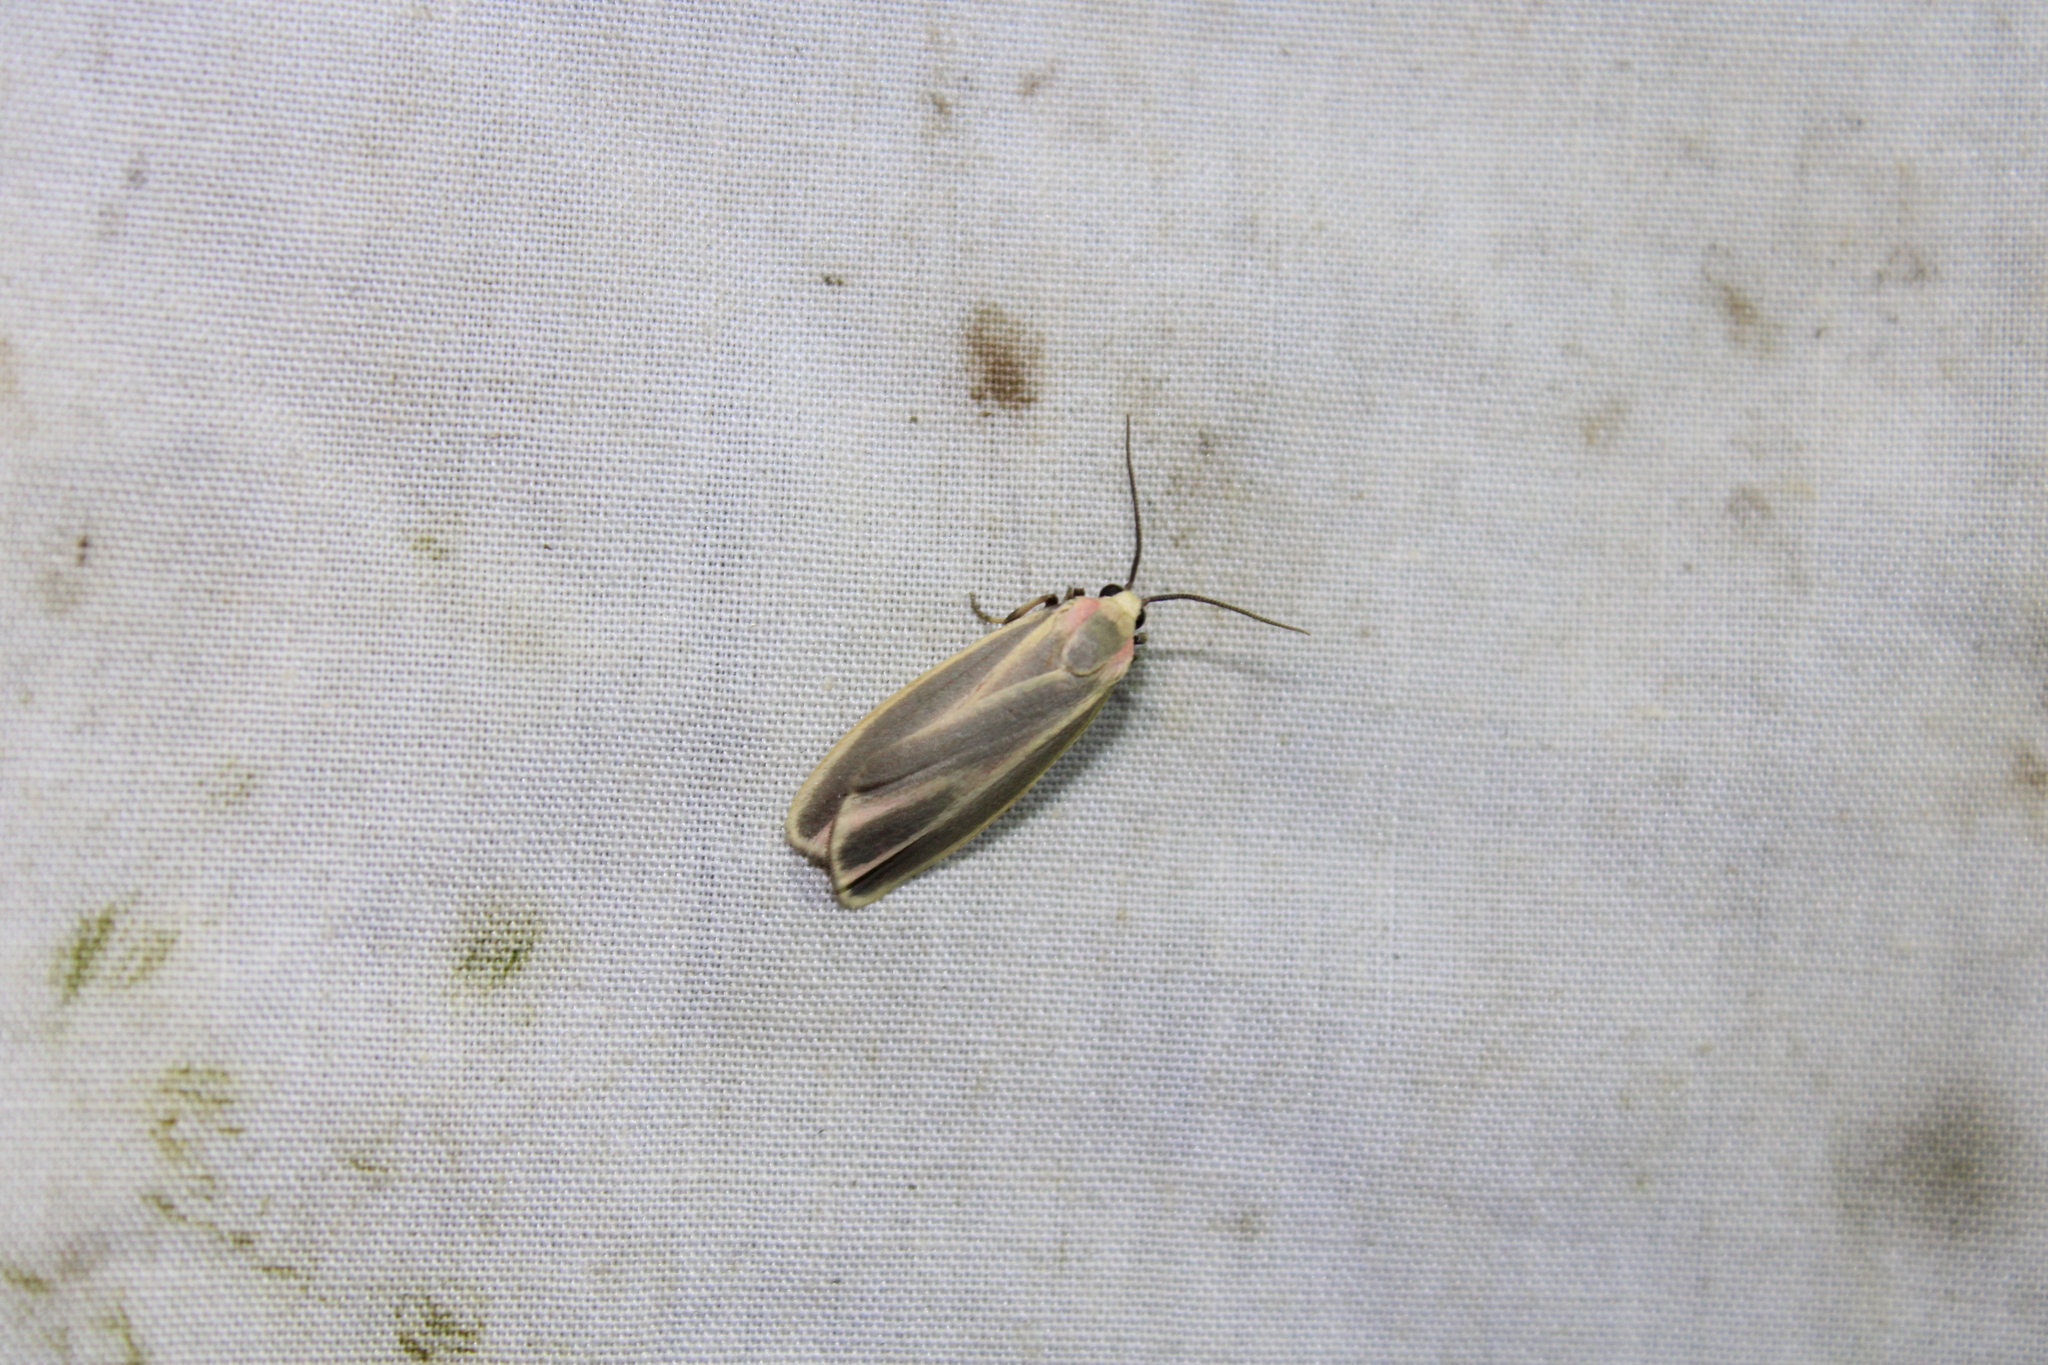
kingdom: Animalia
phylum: Arthropoda
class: Insecta
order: Lepidoptera
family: Erebidae
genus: Hypoprepia
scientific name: Hypoprepia fucosa
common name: Painted lichen moth
